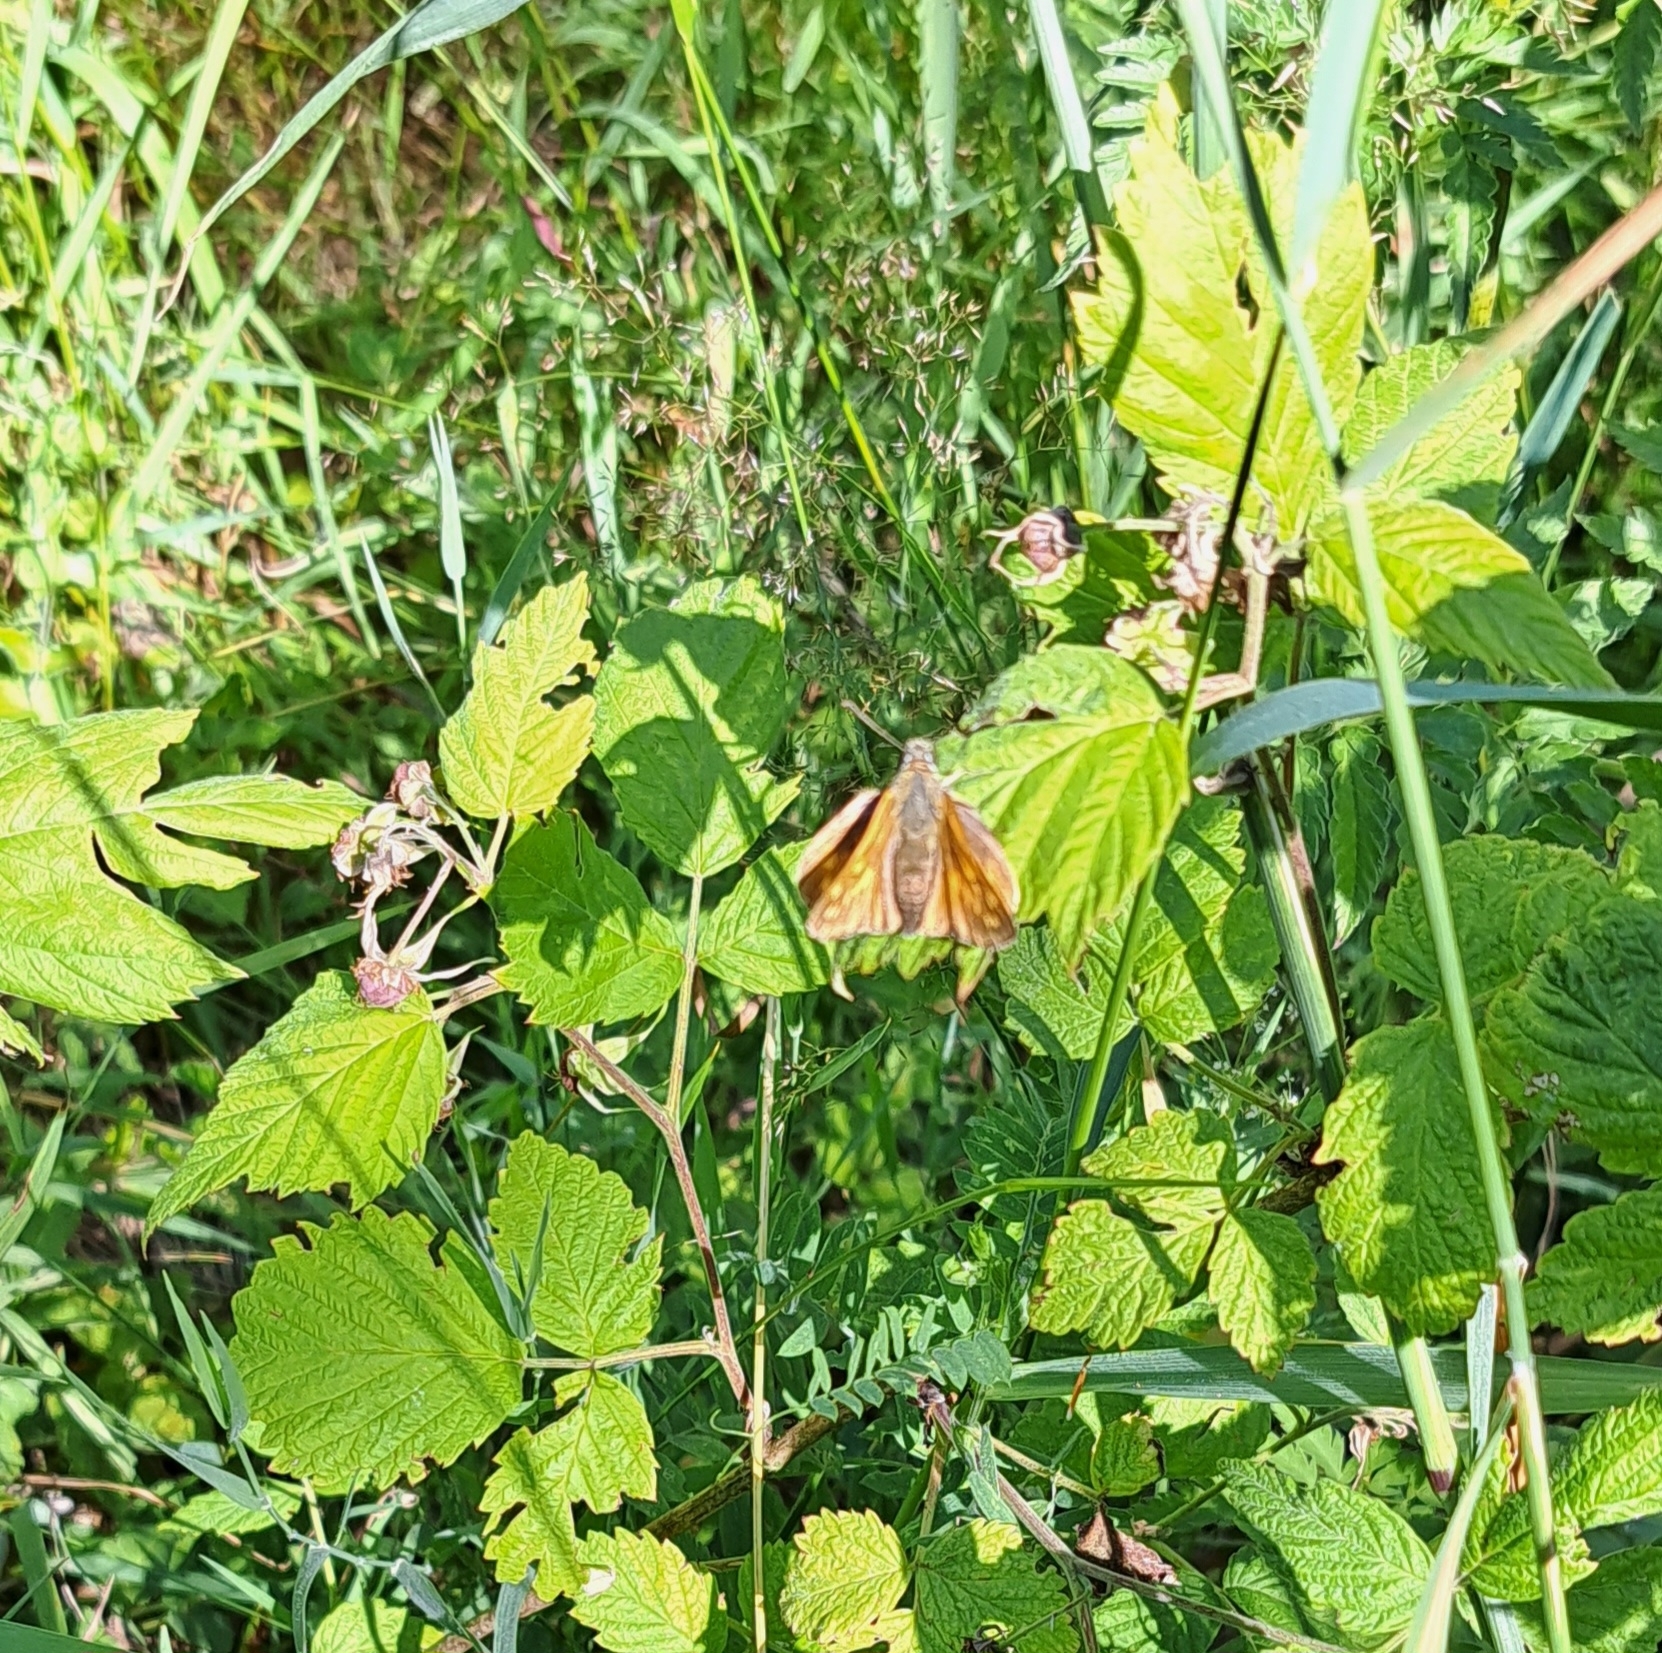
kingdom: Animalia
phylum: Arthropoda
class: Insecta
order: Lepidoptera
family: Hesperiidae
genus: Ochlodes
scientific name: Ochlodes venata
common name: Large skipper
